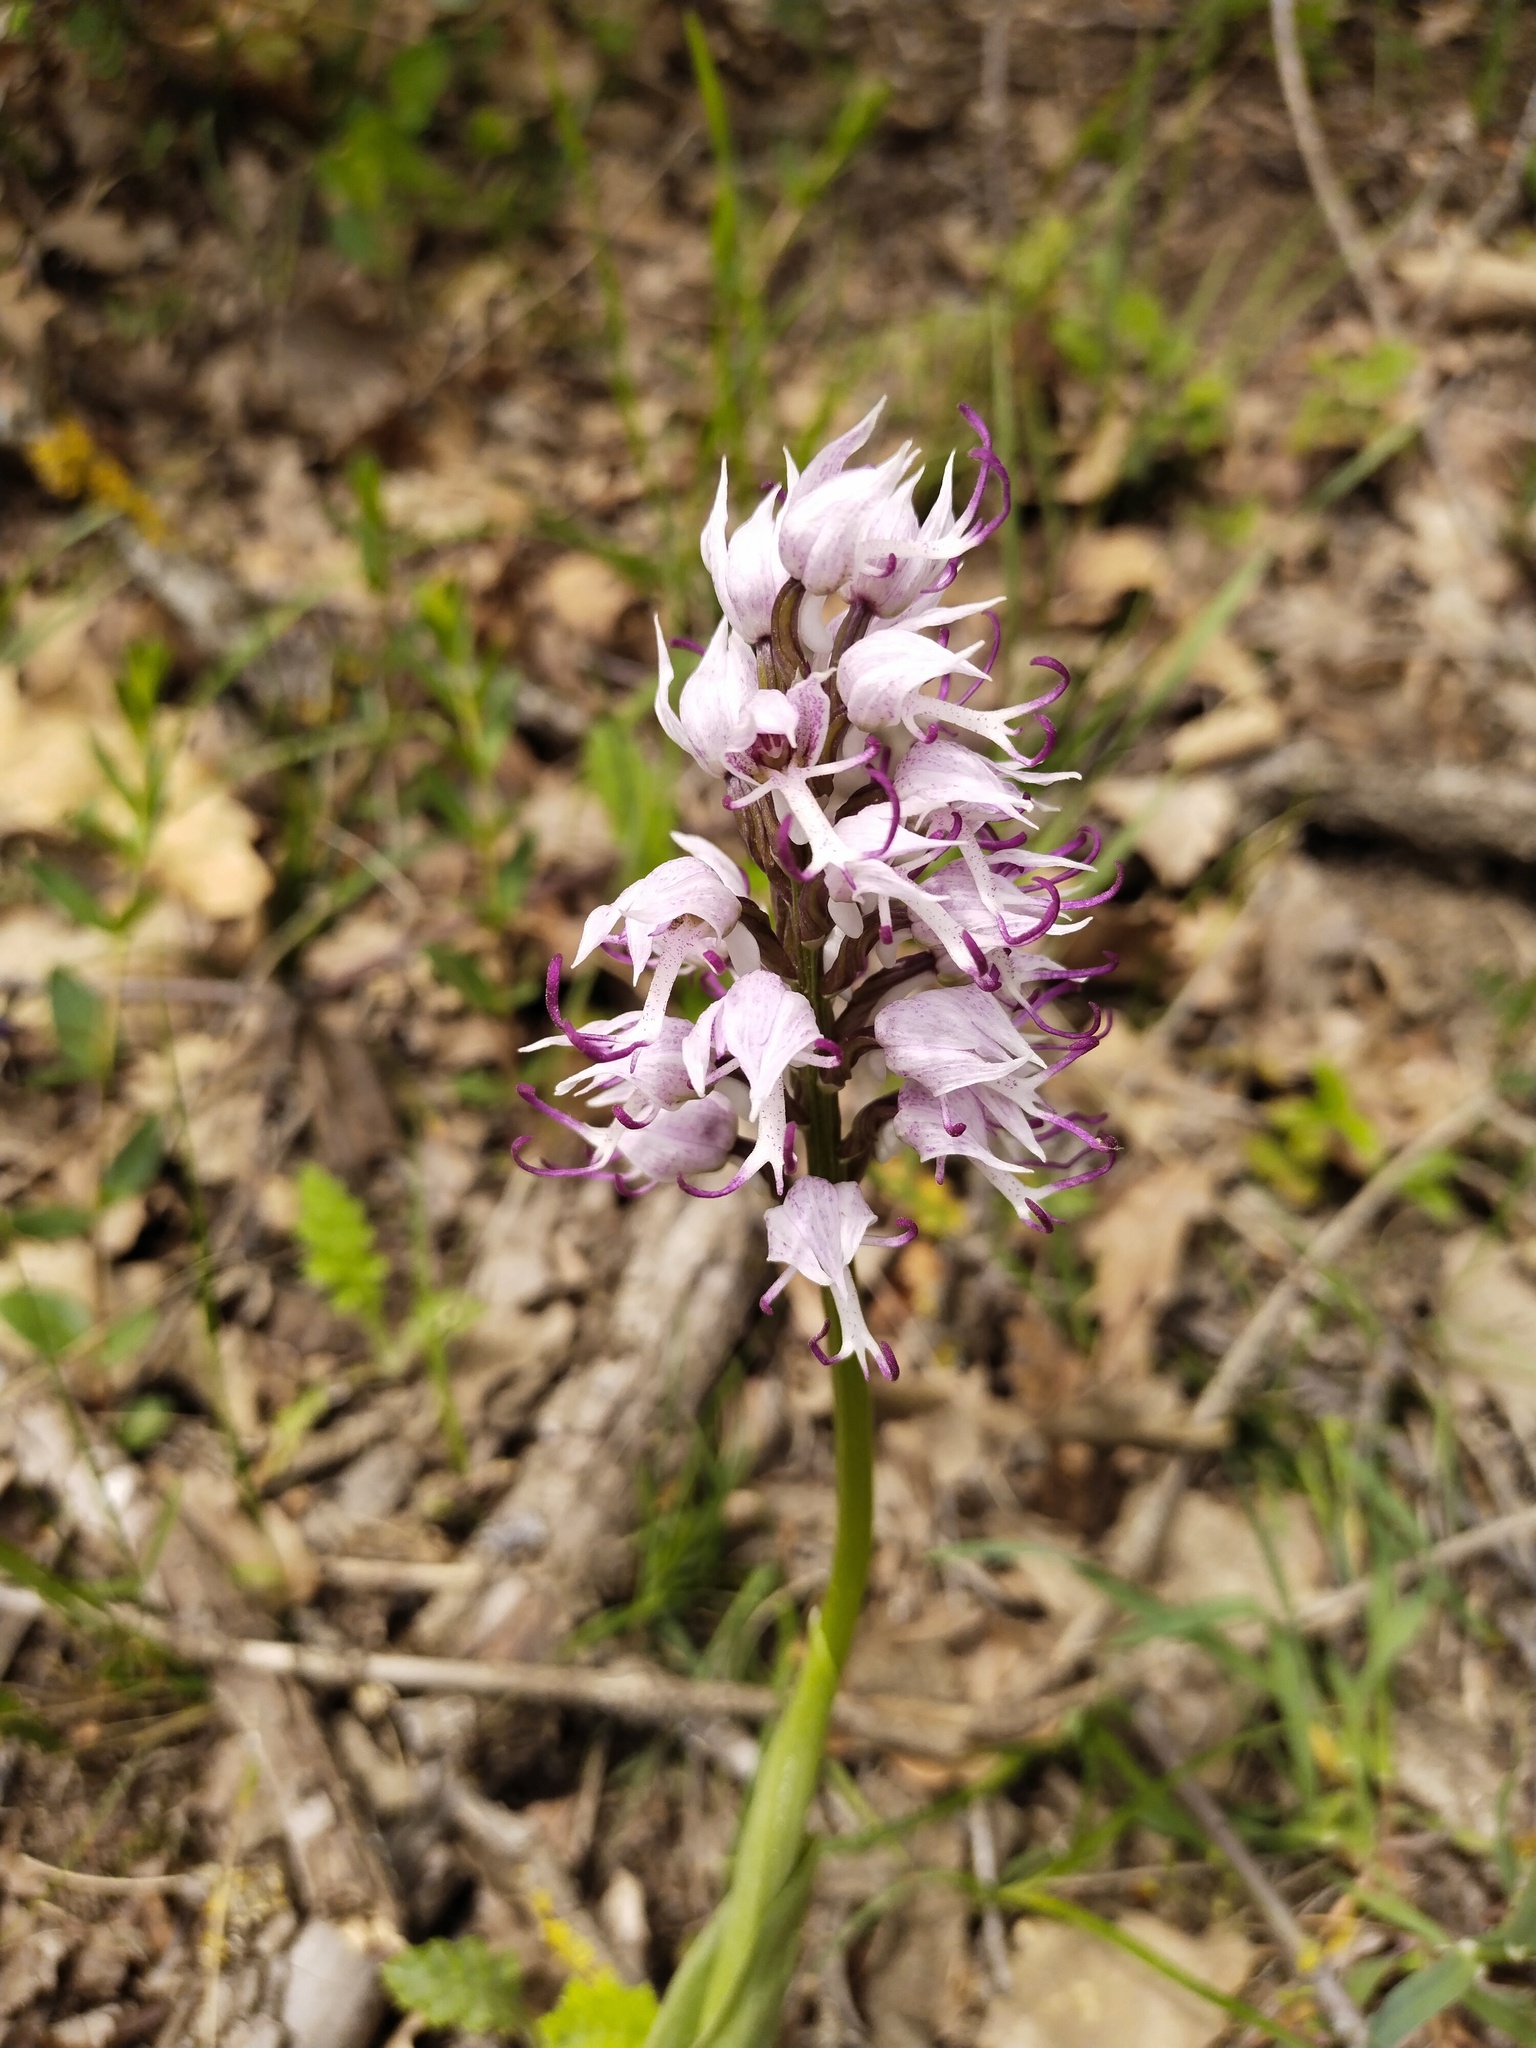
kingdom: Plantae
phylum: Tracheophyta
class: Liliopsida
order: Asparagales
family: Orchidaceae
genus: Orchis
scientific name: Orchis simia
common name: Monkey orchid
